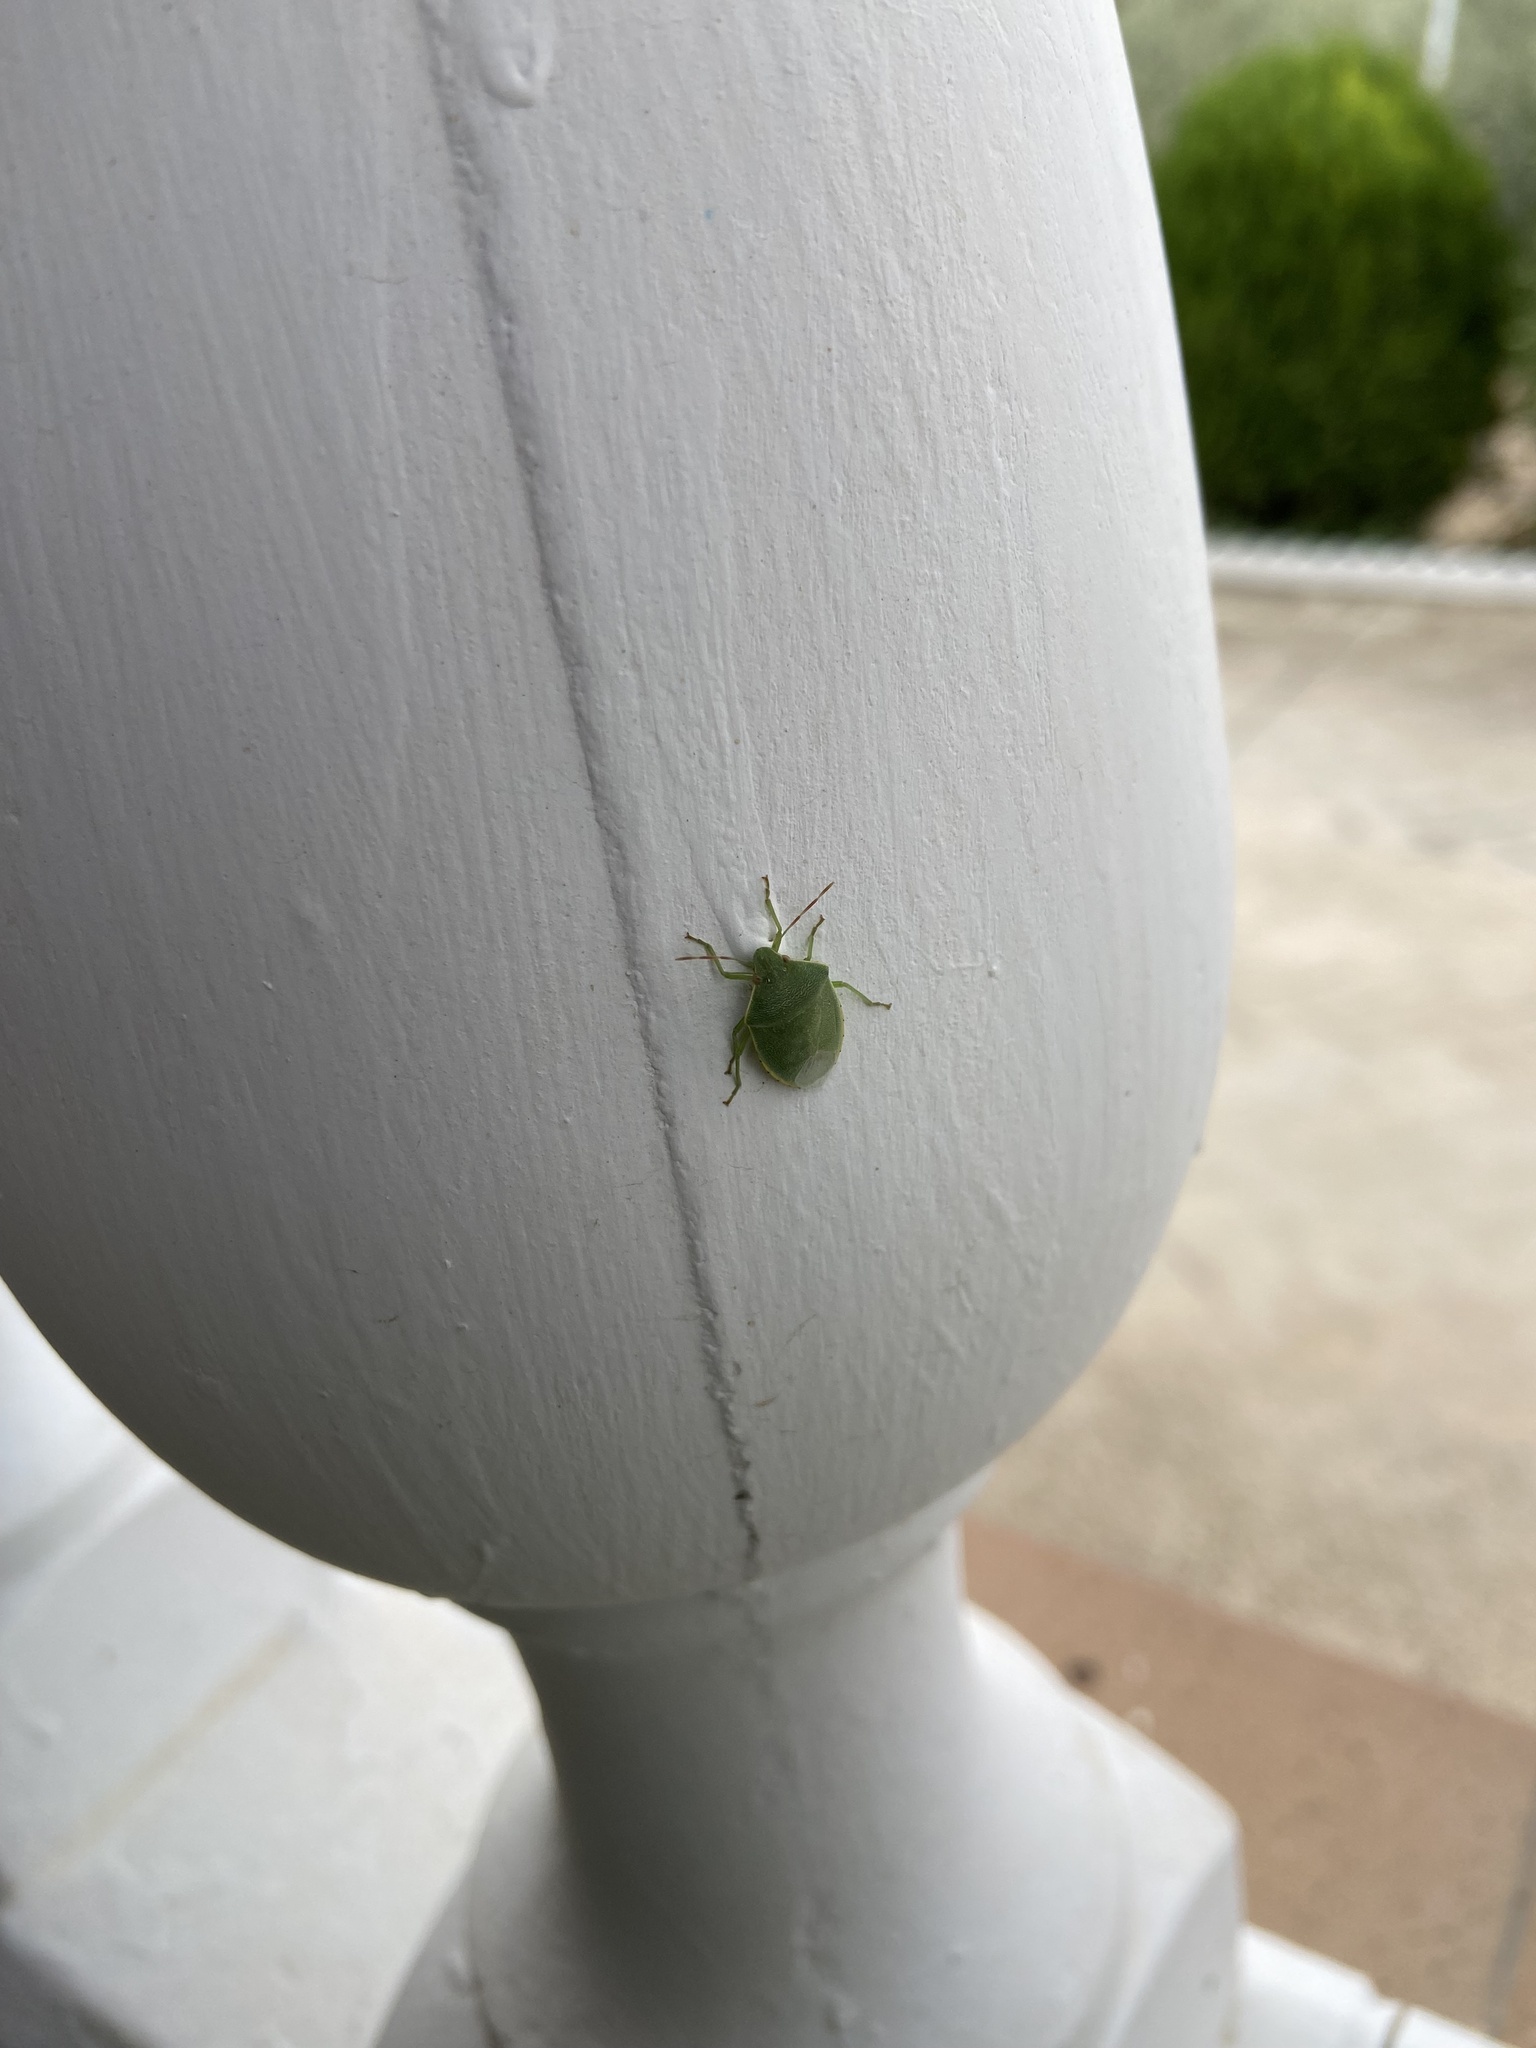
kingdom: Animalia
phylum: Arthropoda
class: Insecta
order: Hemiptera
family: Pentatomidae
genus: Acrosternum
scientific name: Acrosternum heegeri
